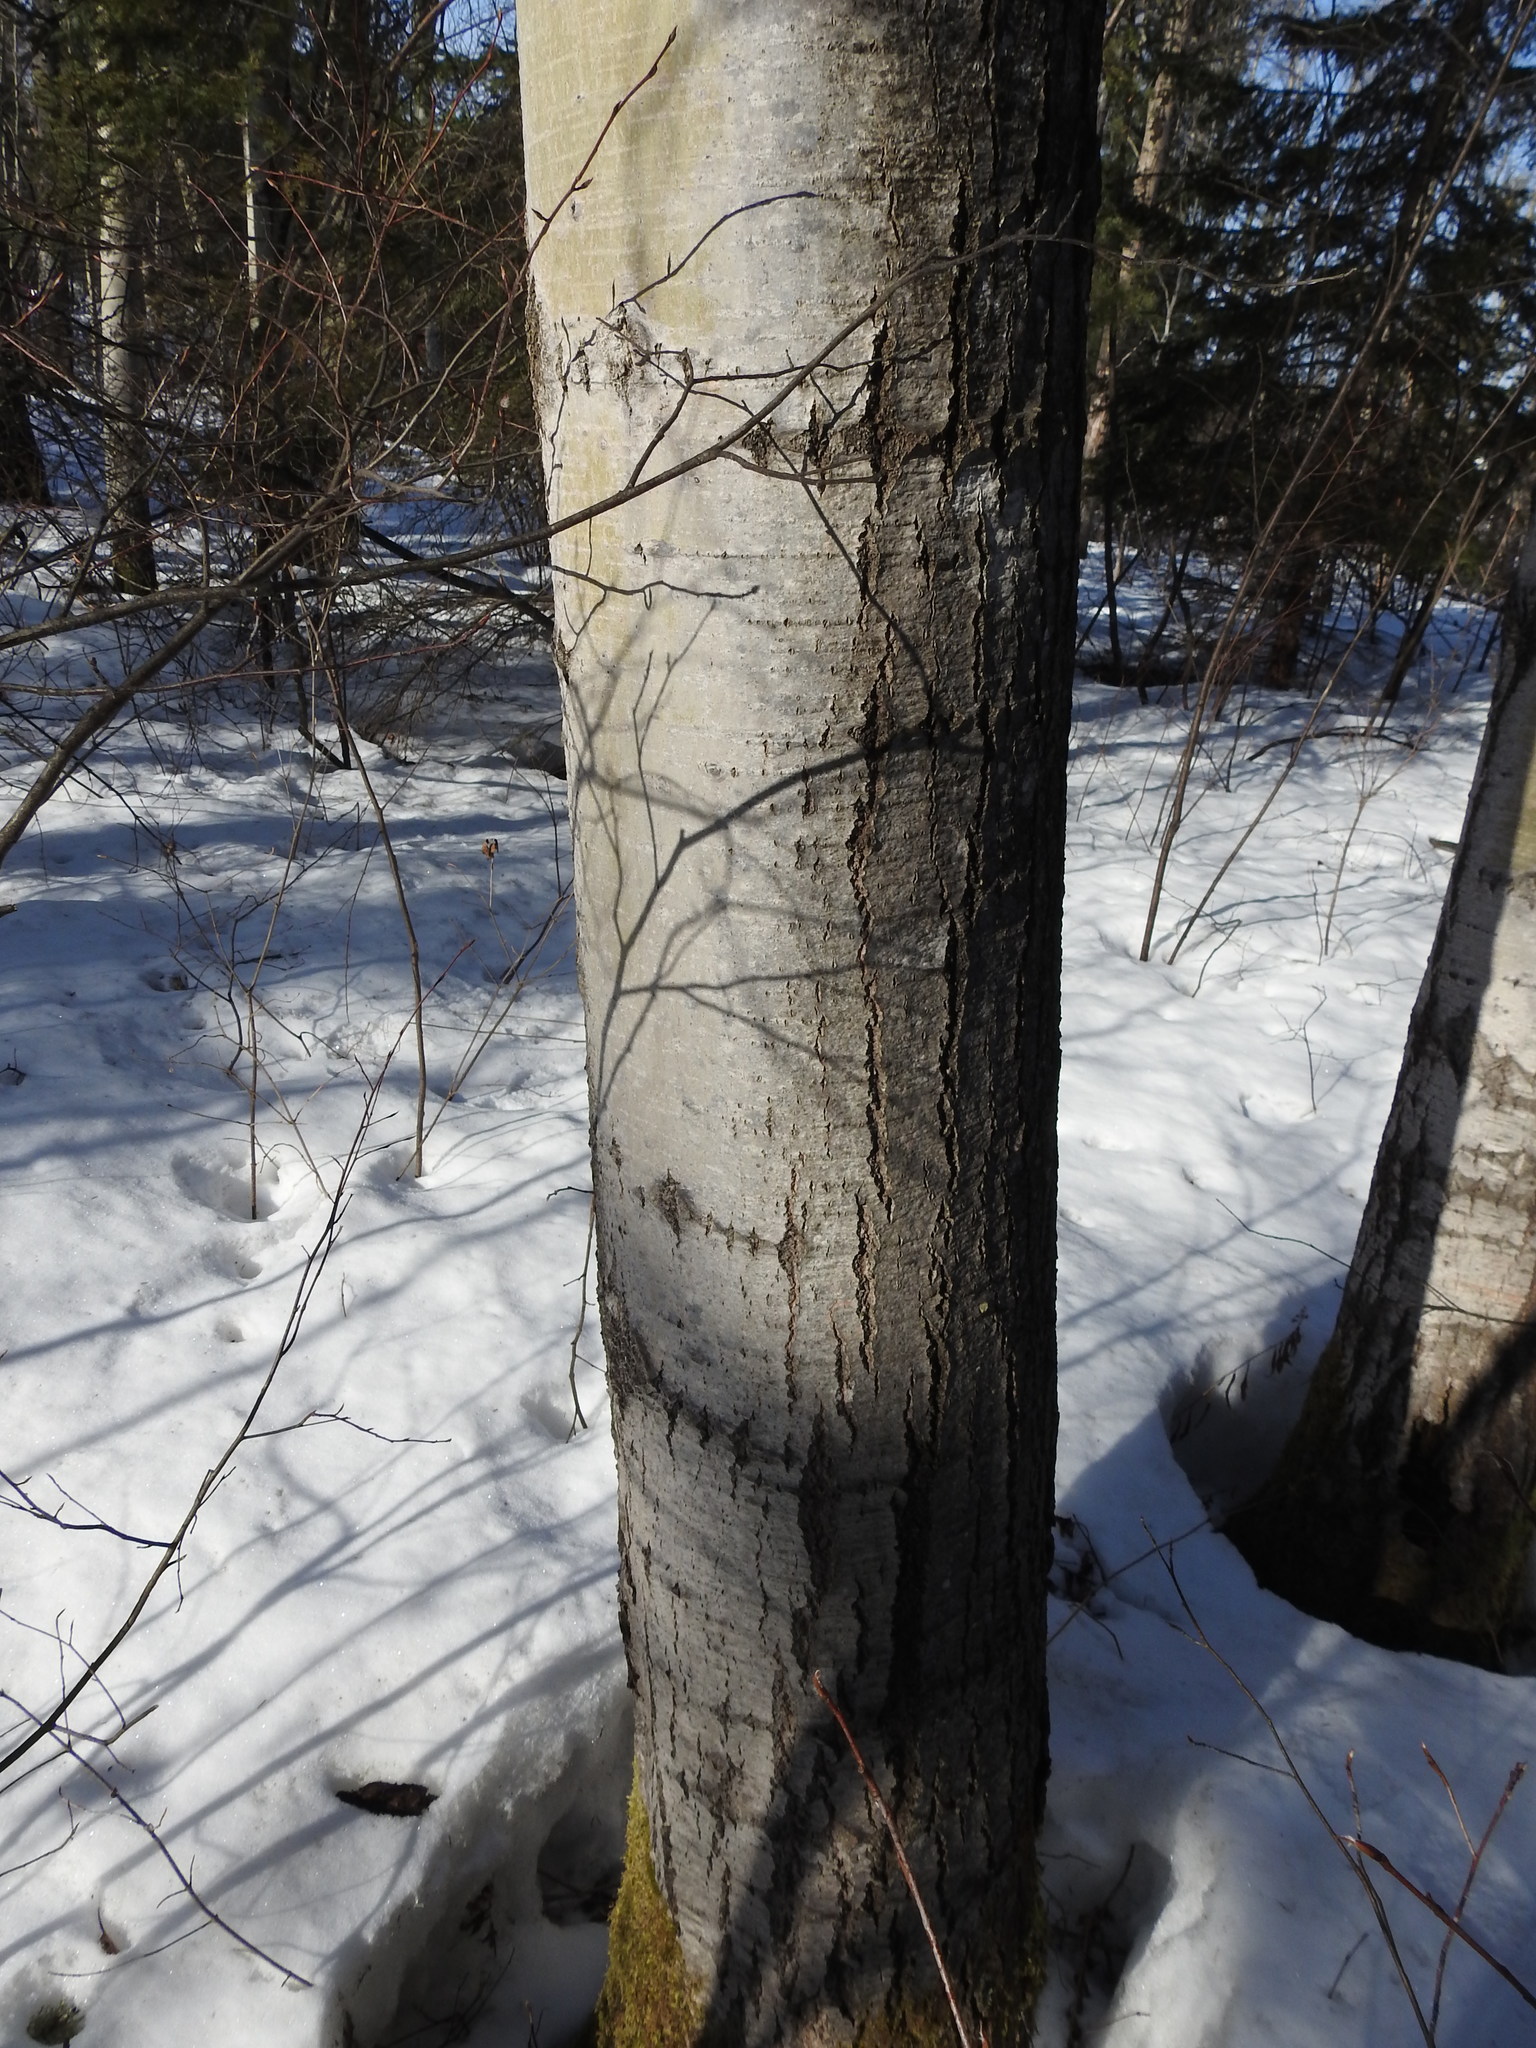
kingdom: Plantae
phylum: Tracheophyta
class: Magnoliopsida
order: Malpighiales
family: Salicaceae
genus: Populus
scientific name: Populus tremuloides
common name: Quaking aspen
